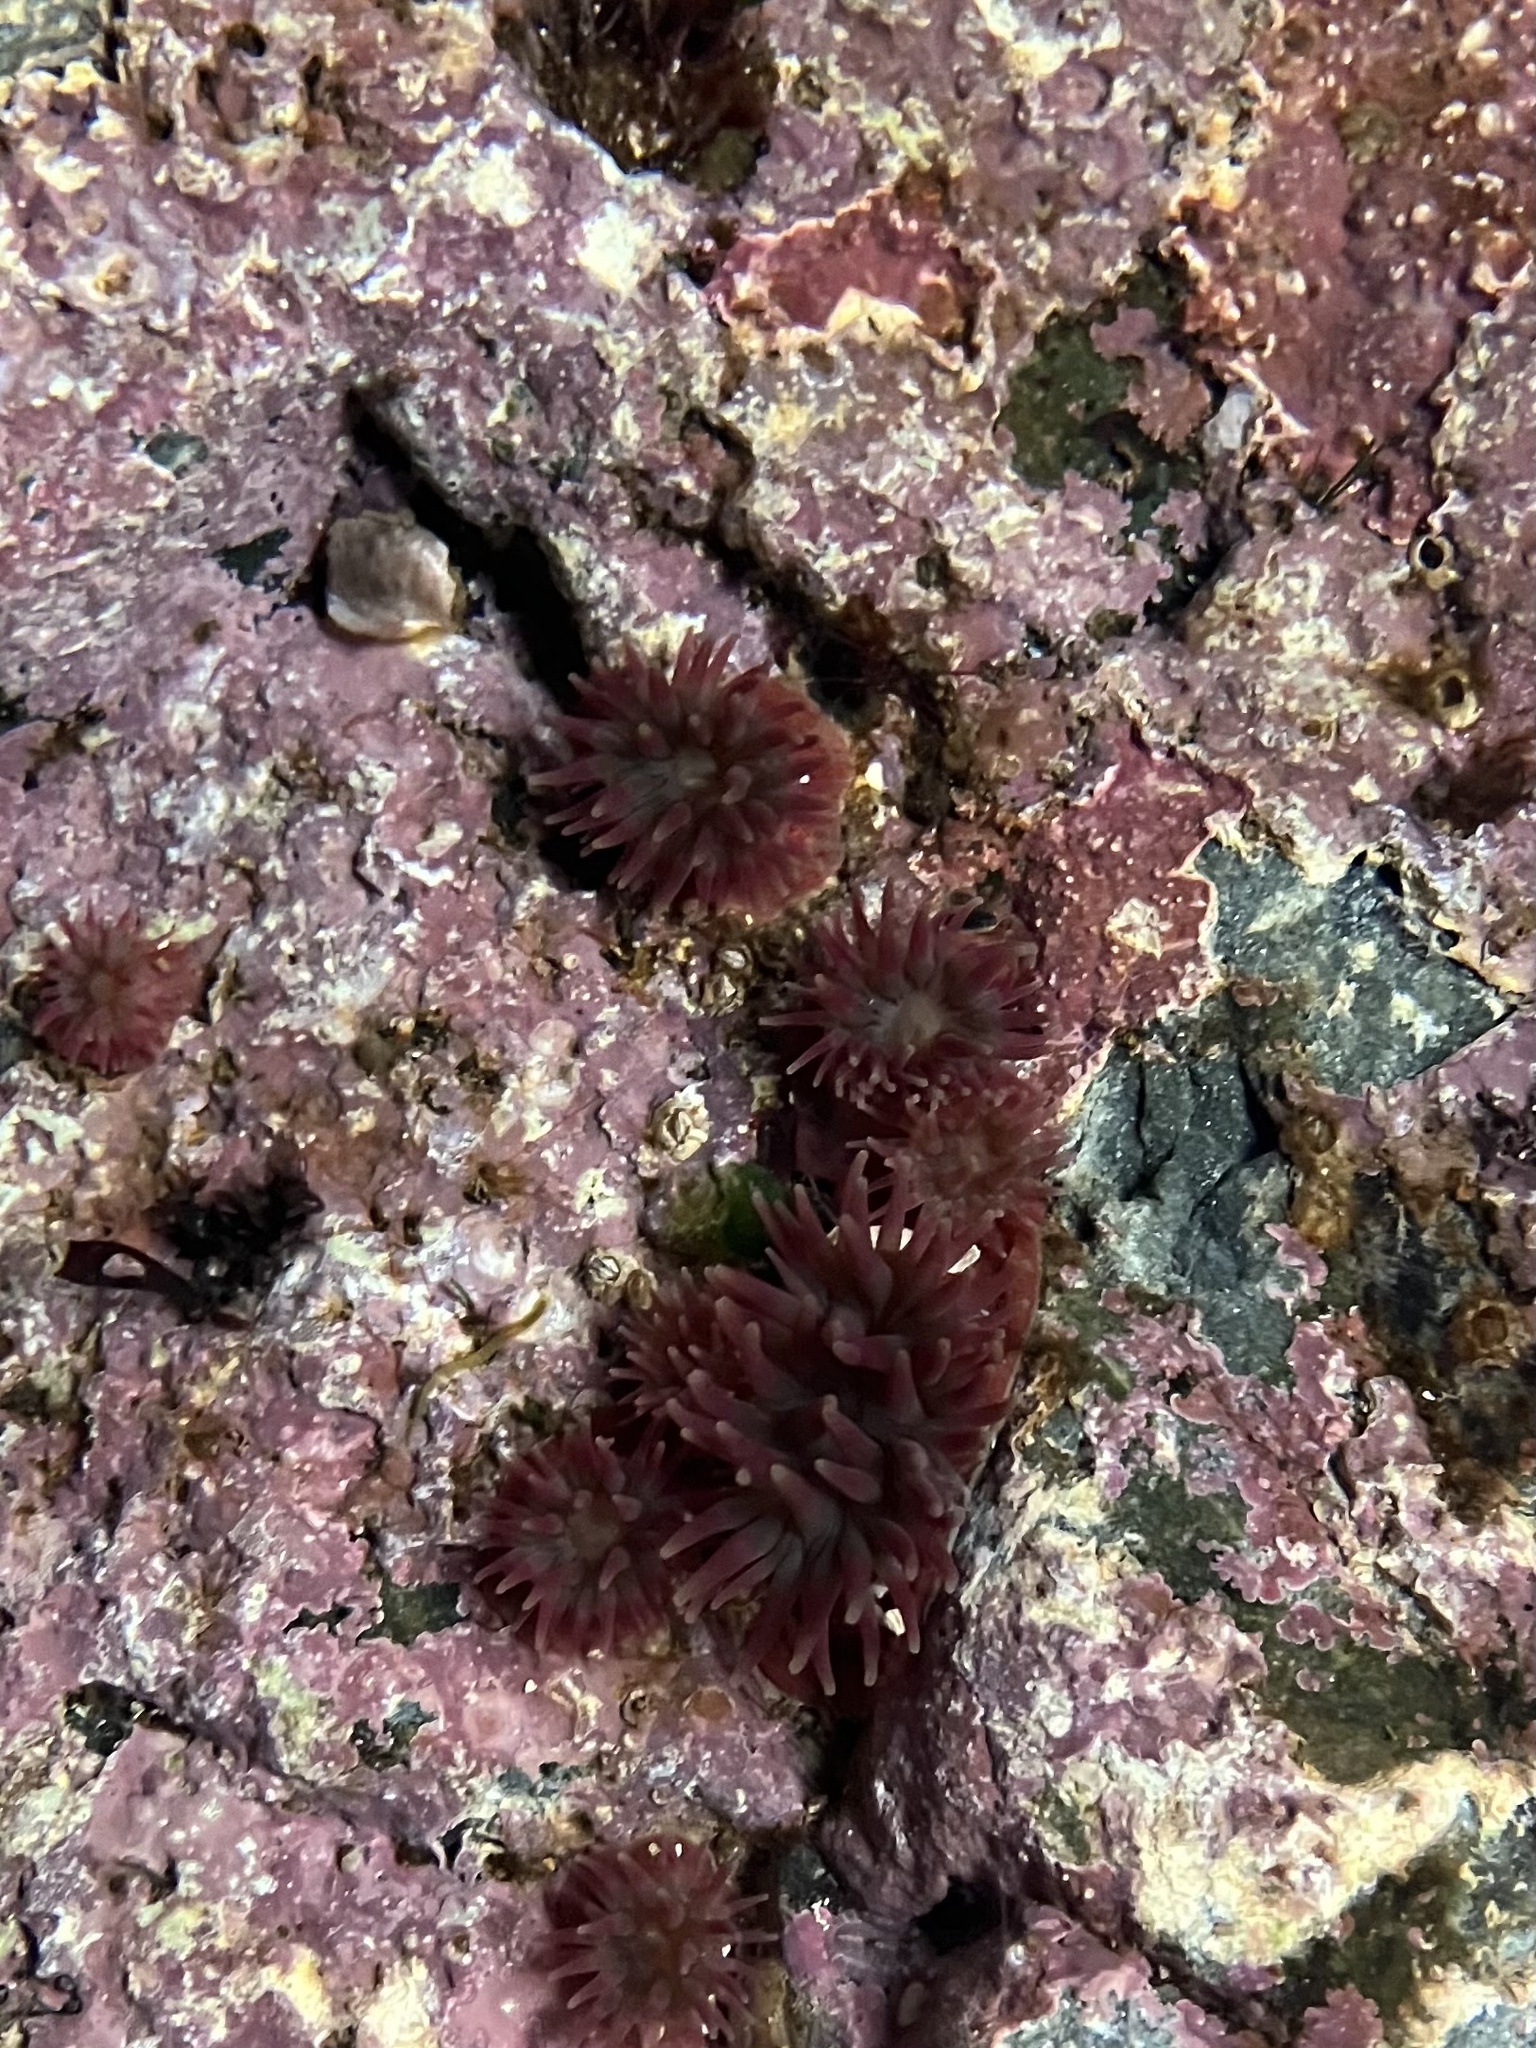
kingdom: Animalia
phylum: Cnidaria
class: Anthozoa
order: Actiniaria
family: Actiniidae
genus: Urticina
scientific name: Urticina crassicornis
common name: Mottled anemone
